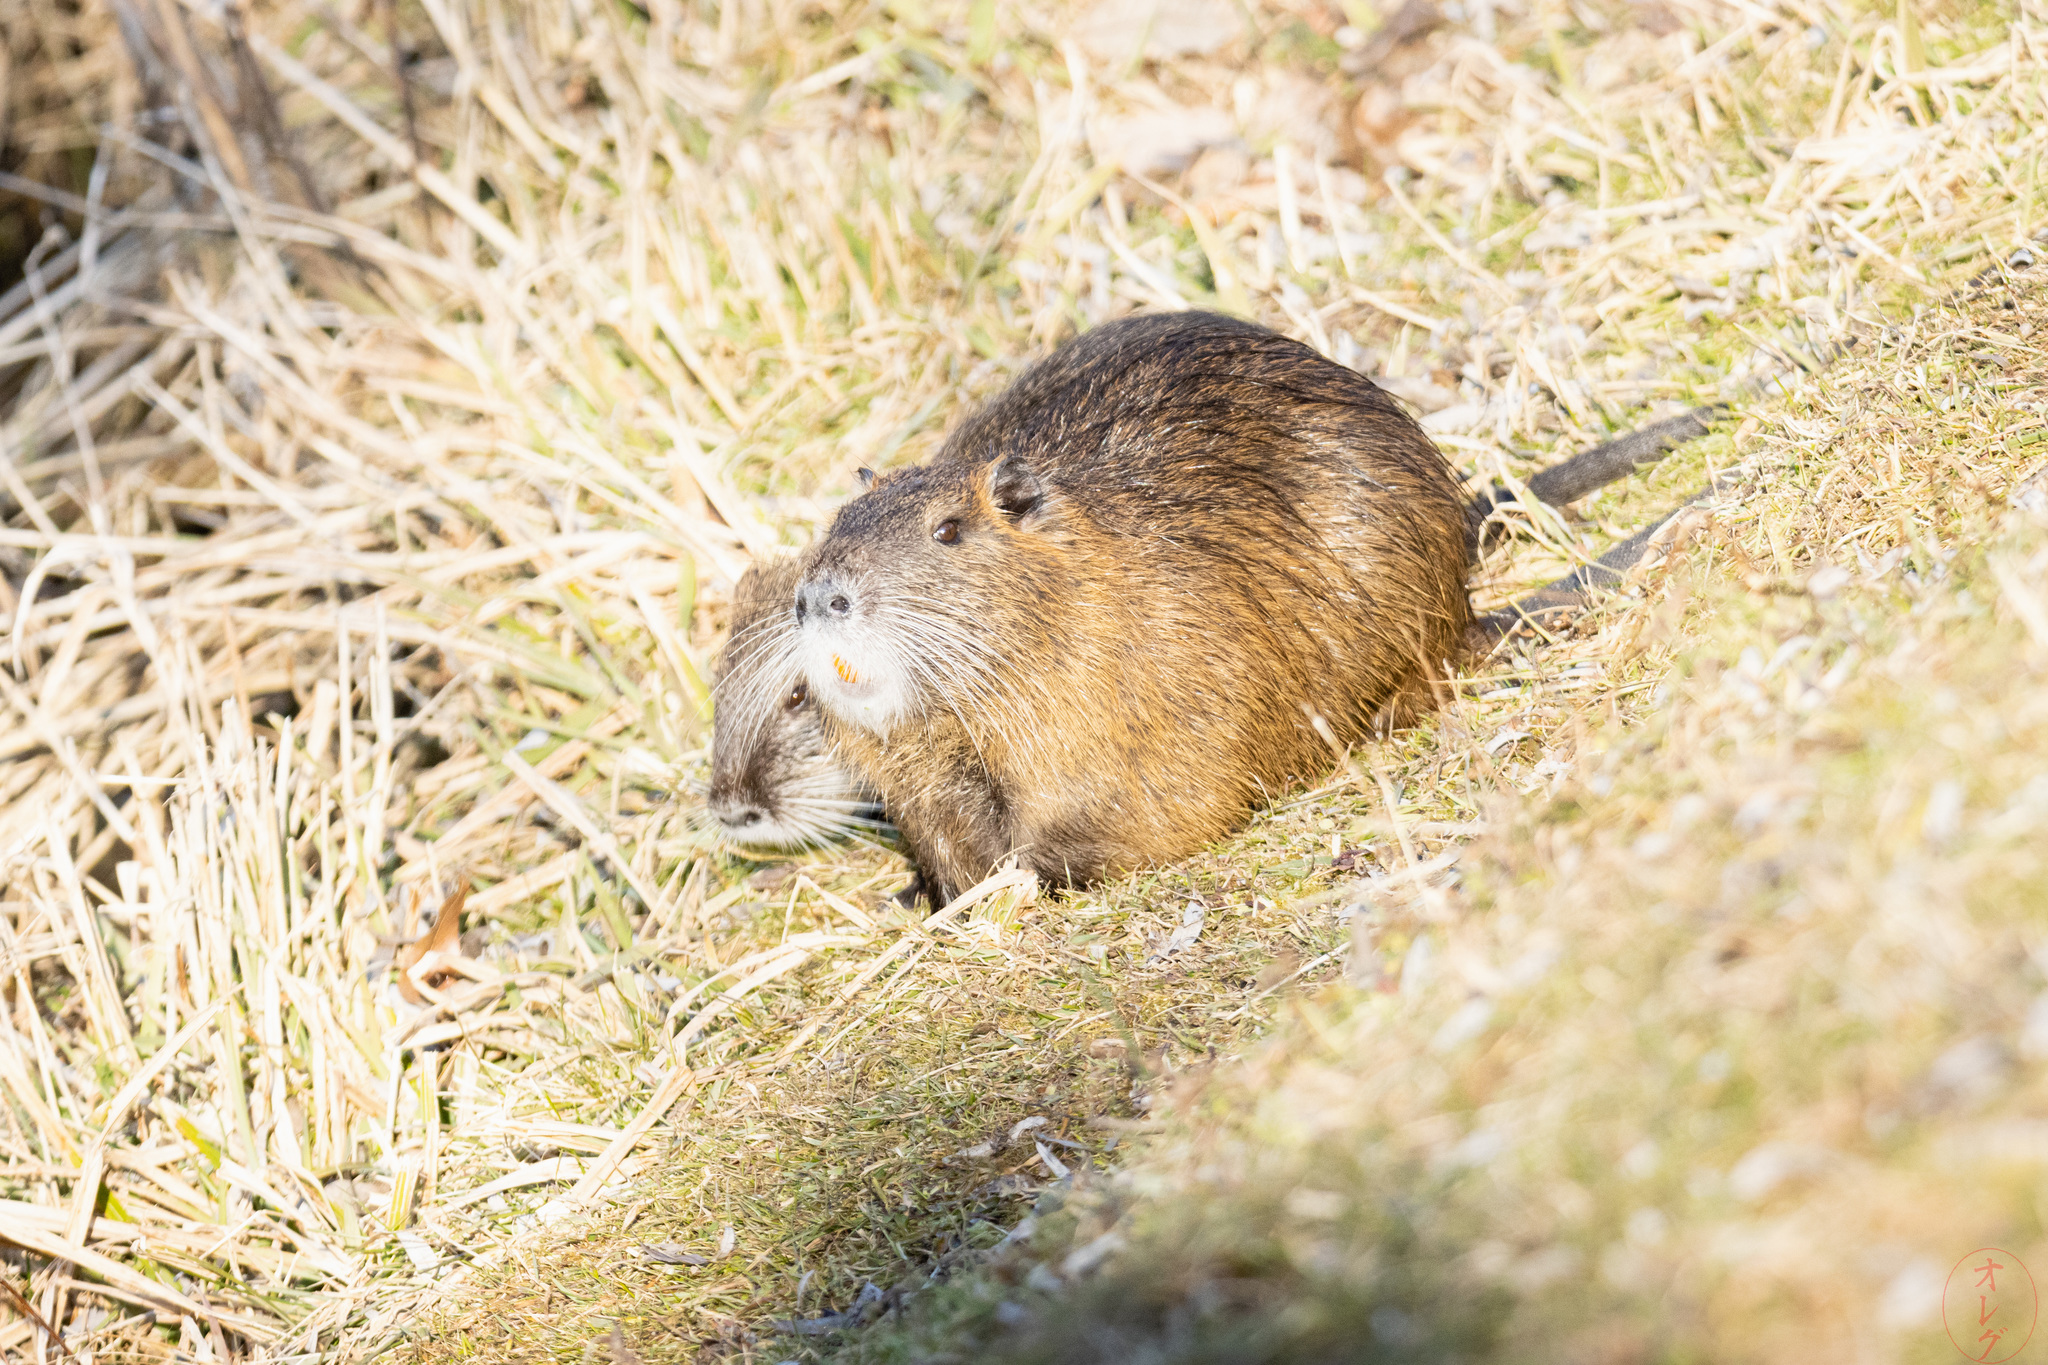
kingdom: Animalia
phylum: Chordata
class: Mammalia
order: Rodentia
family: Myocastoridae
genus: Myocastor
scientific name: Myocastor coypus
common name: Coypu
